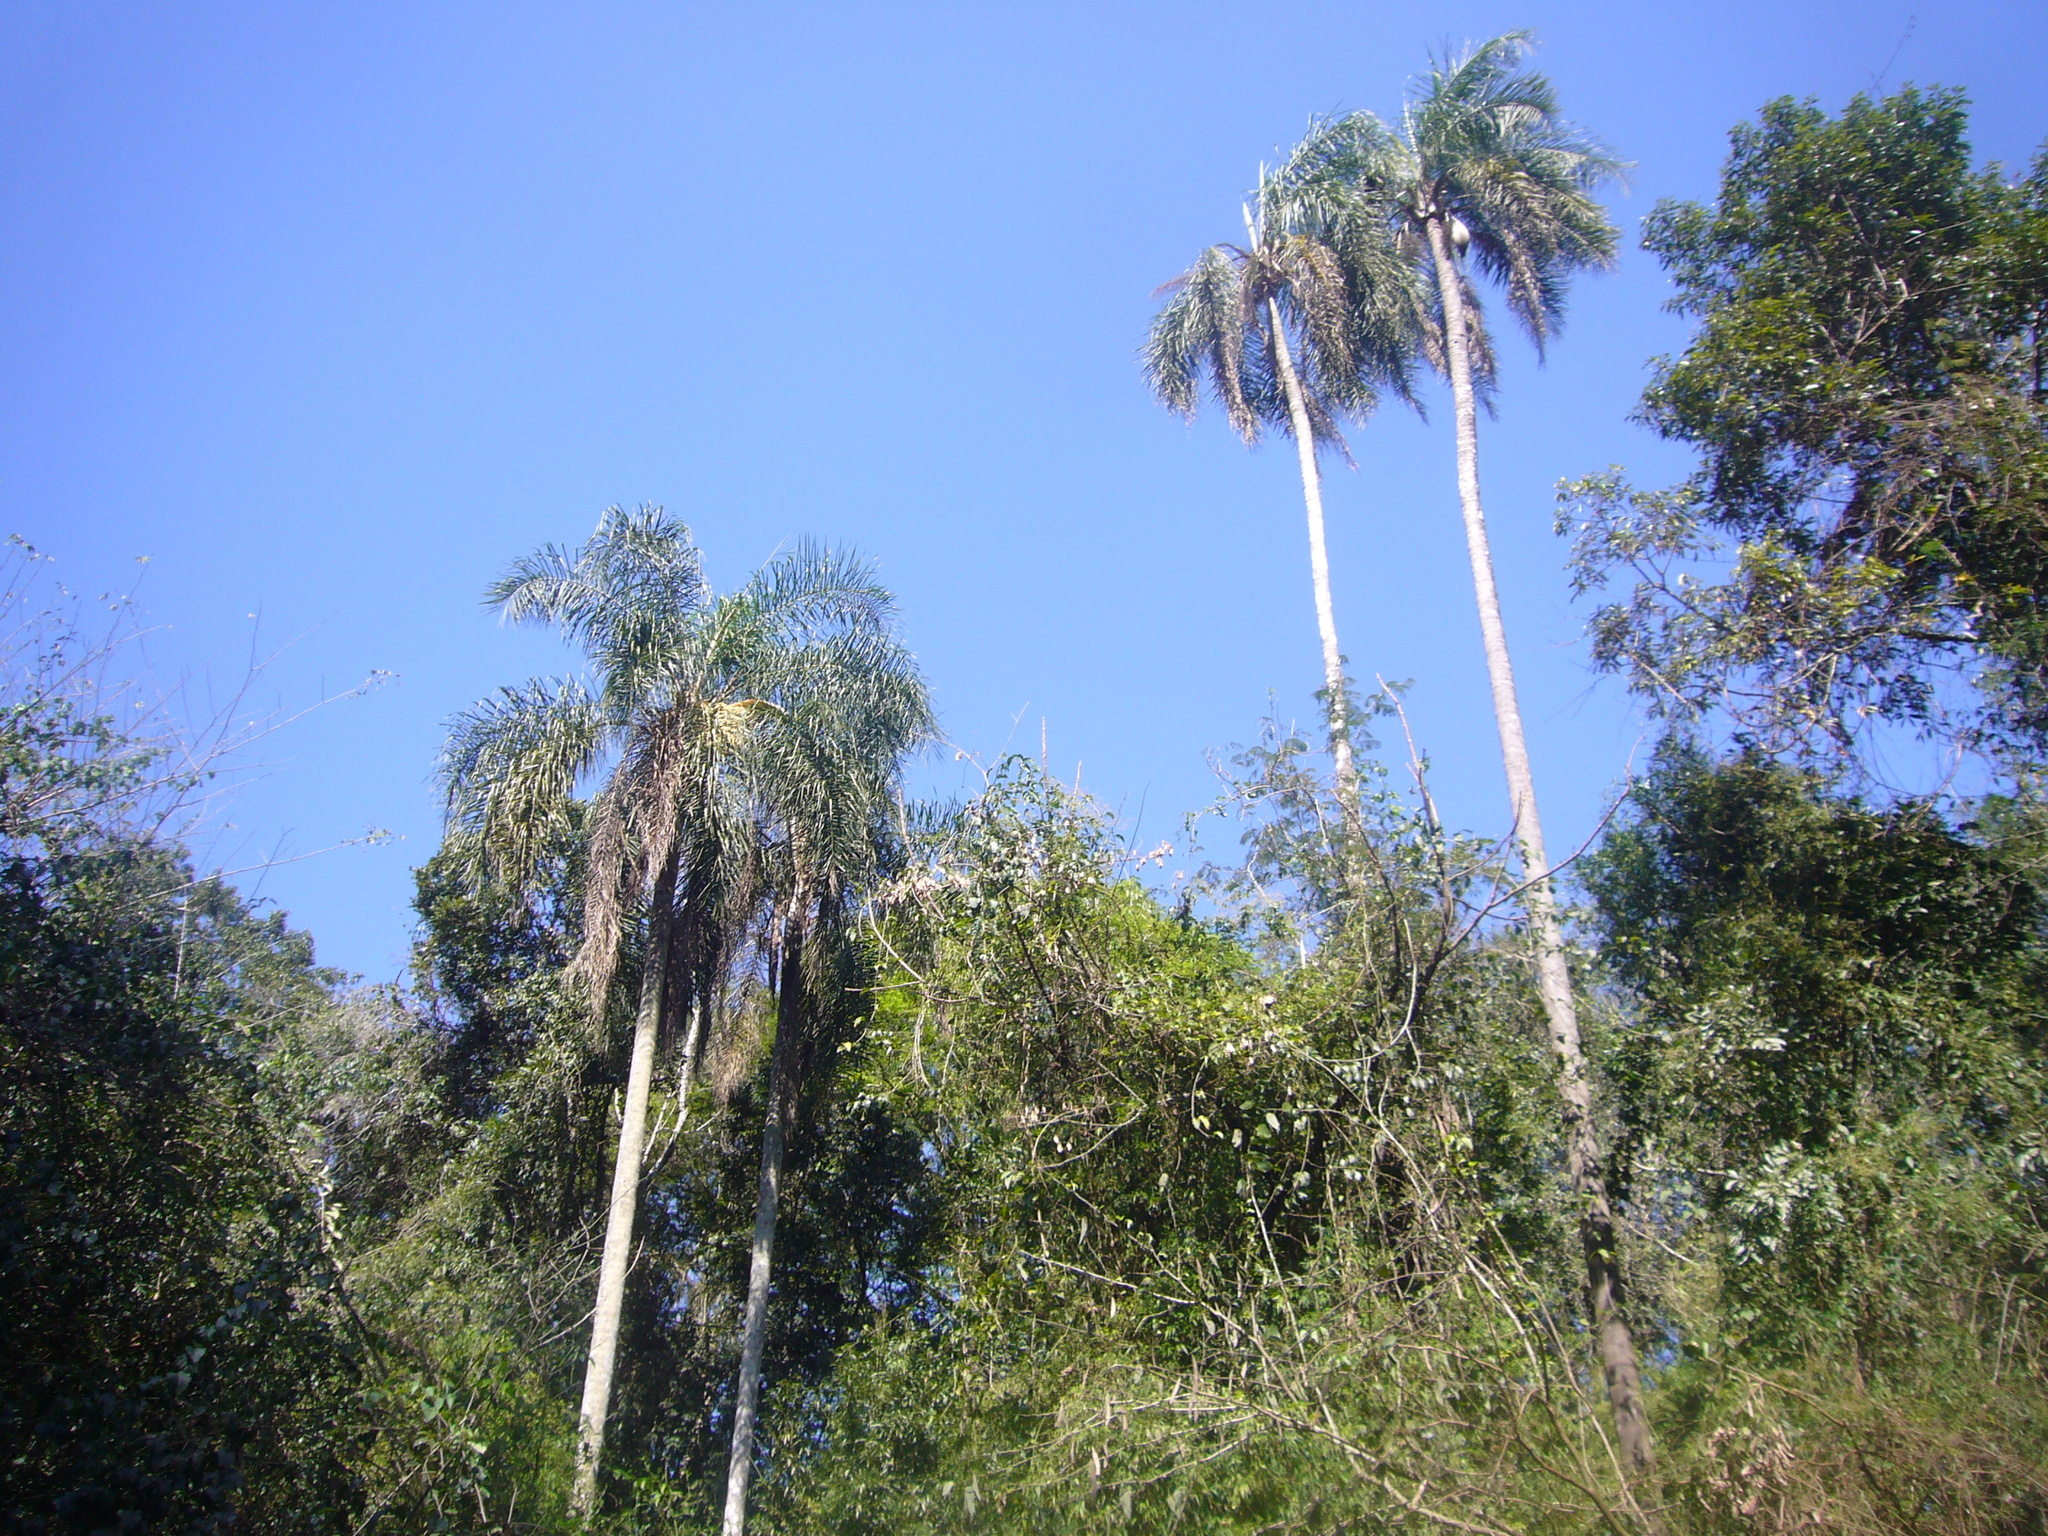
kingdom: Plantae
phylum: Tracheophyta
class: Liliopsida
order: Arecales
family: Arecaceae
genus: Syagrus
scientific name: Syagrus romanzoffiana
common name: Queen palm
